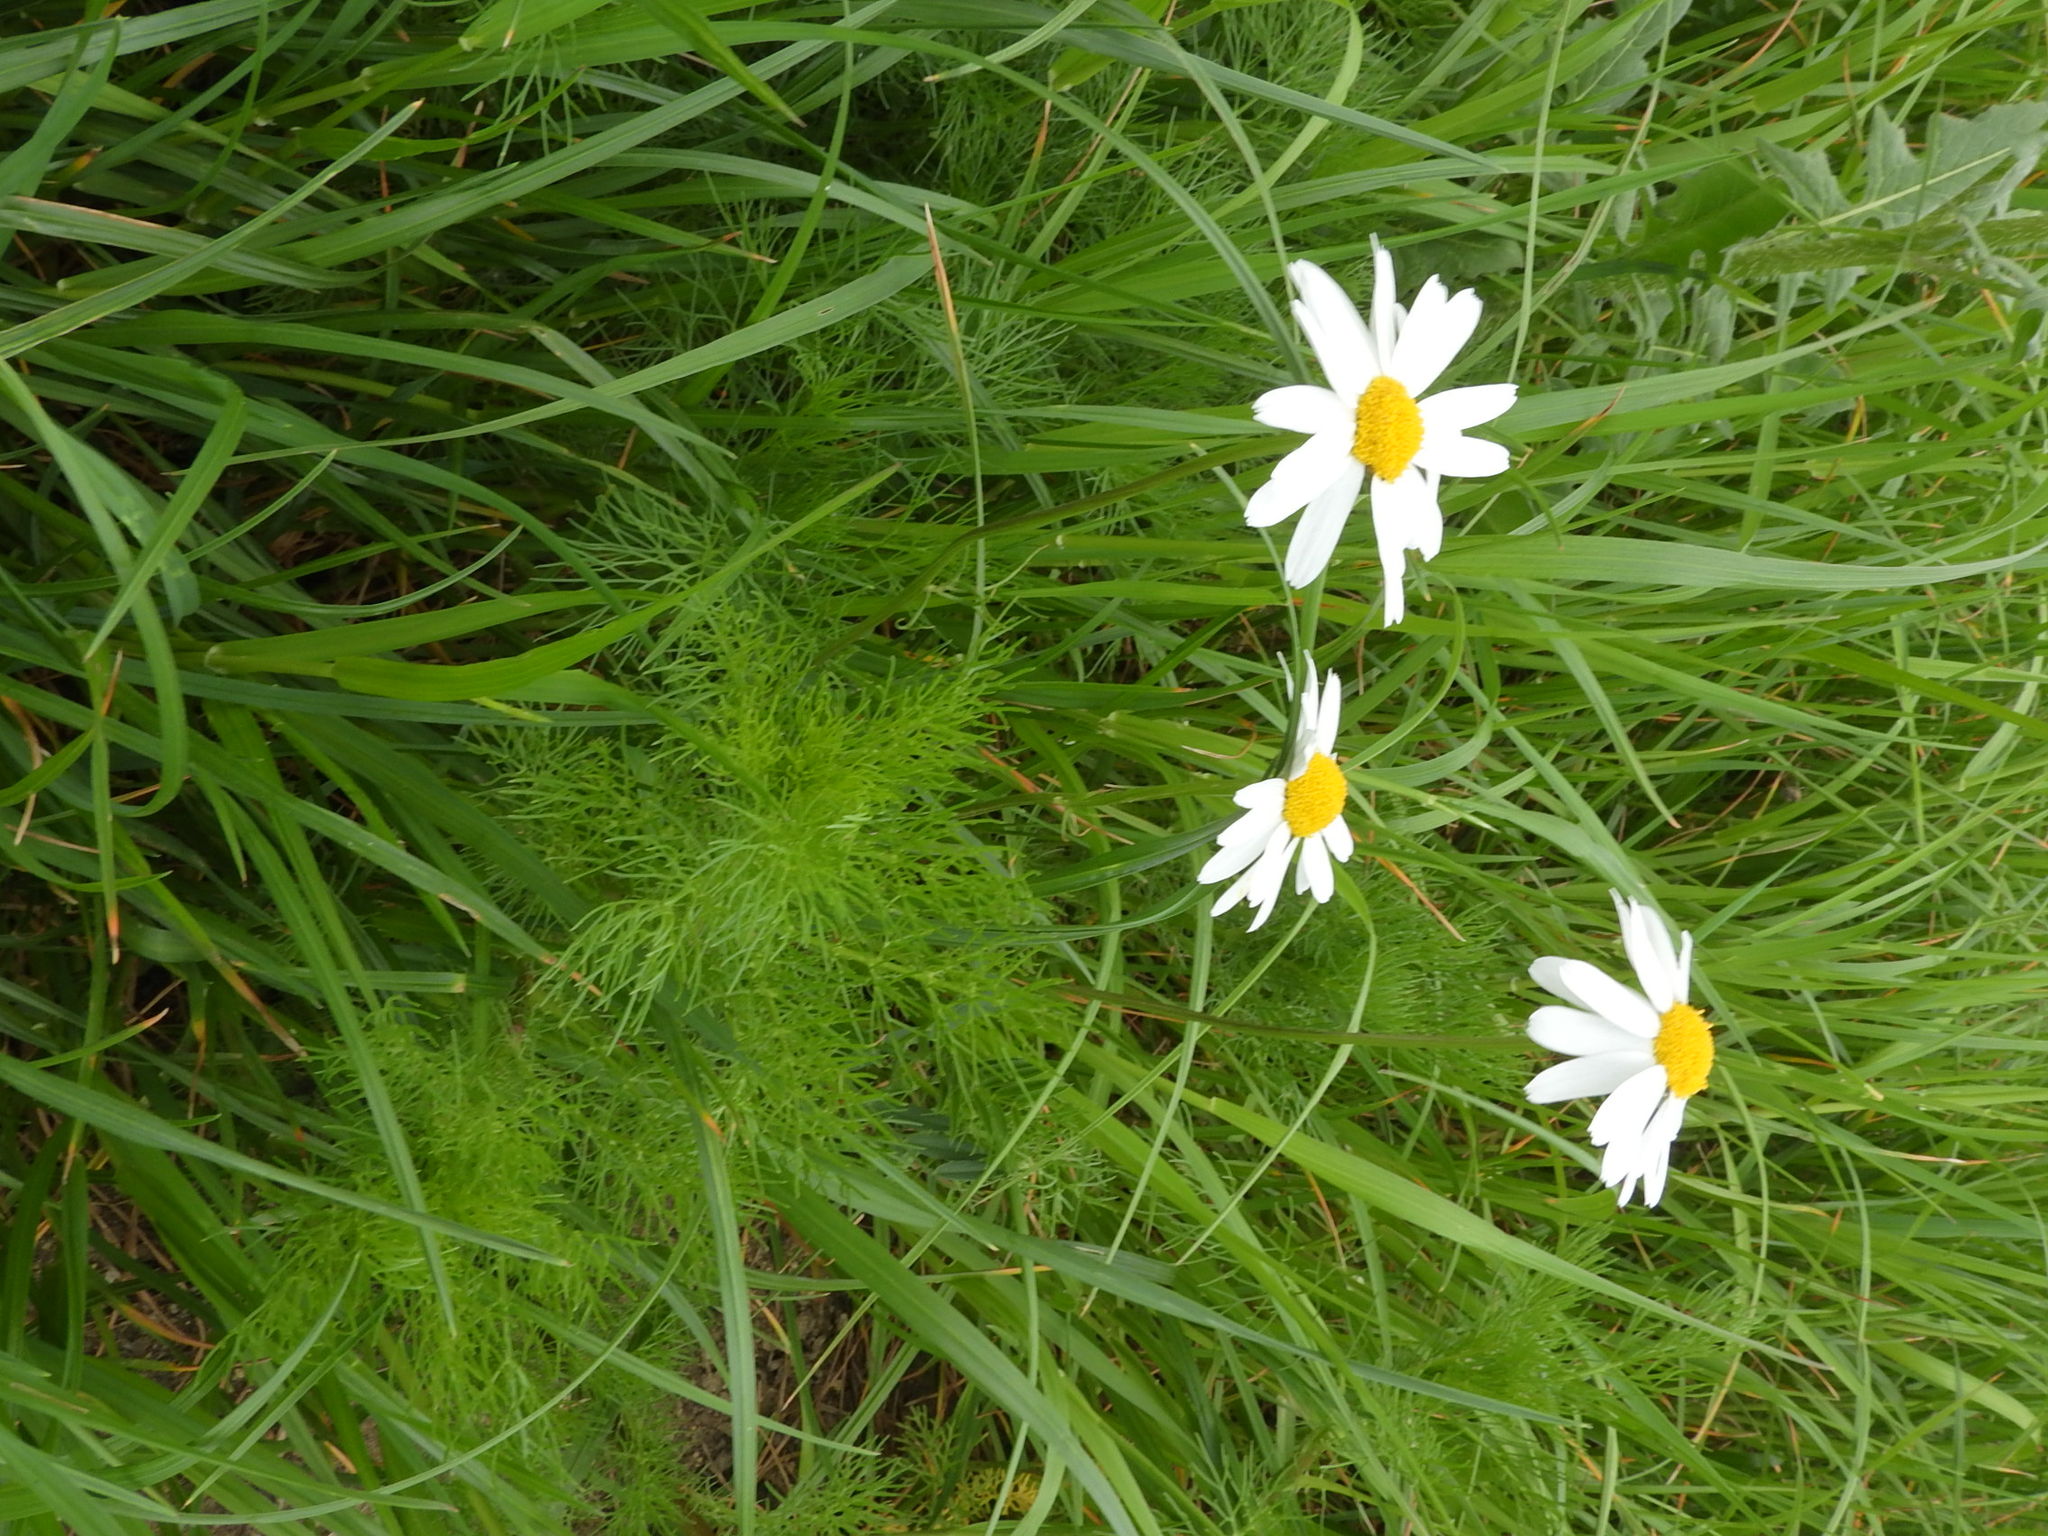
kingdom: Plantae
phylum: Tracheophyta
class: Magnoliopsida
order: Asterales
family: Asteraceae
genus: Tripleurospermum
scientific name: Tripleurospermum inodorum
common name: Scentless mayweed
